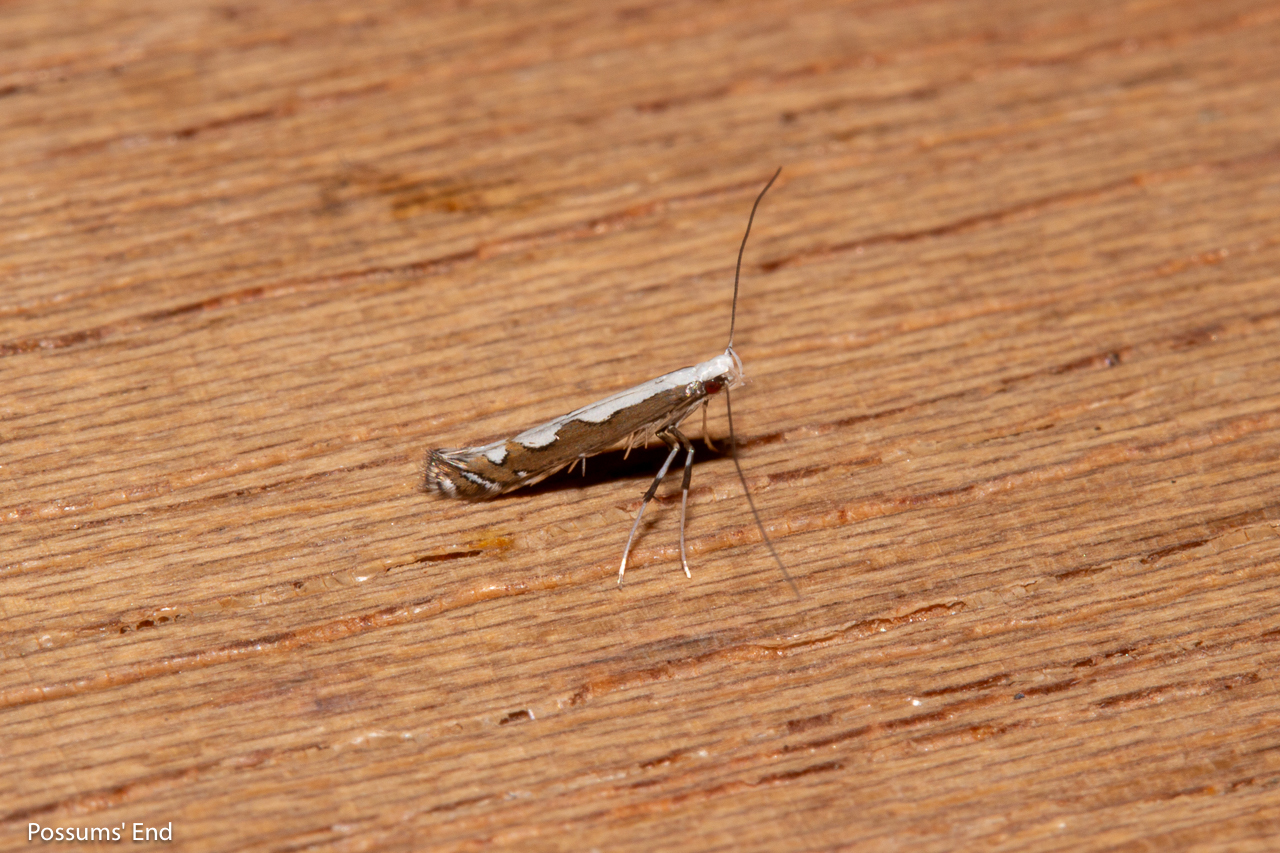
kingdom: Animalia
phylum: Arthropoda
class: Insecta
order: Lepidoptera
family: Gracillariidae
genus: Dialectica
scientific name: Dialectica scalariella
